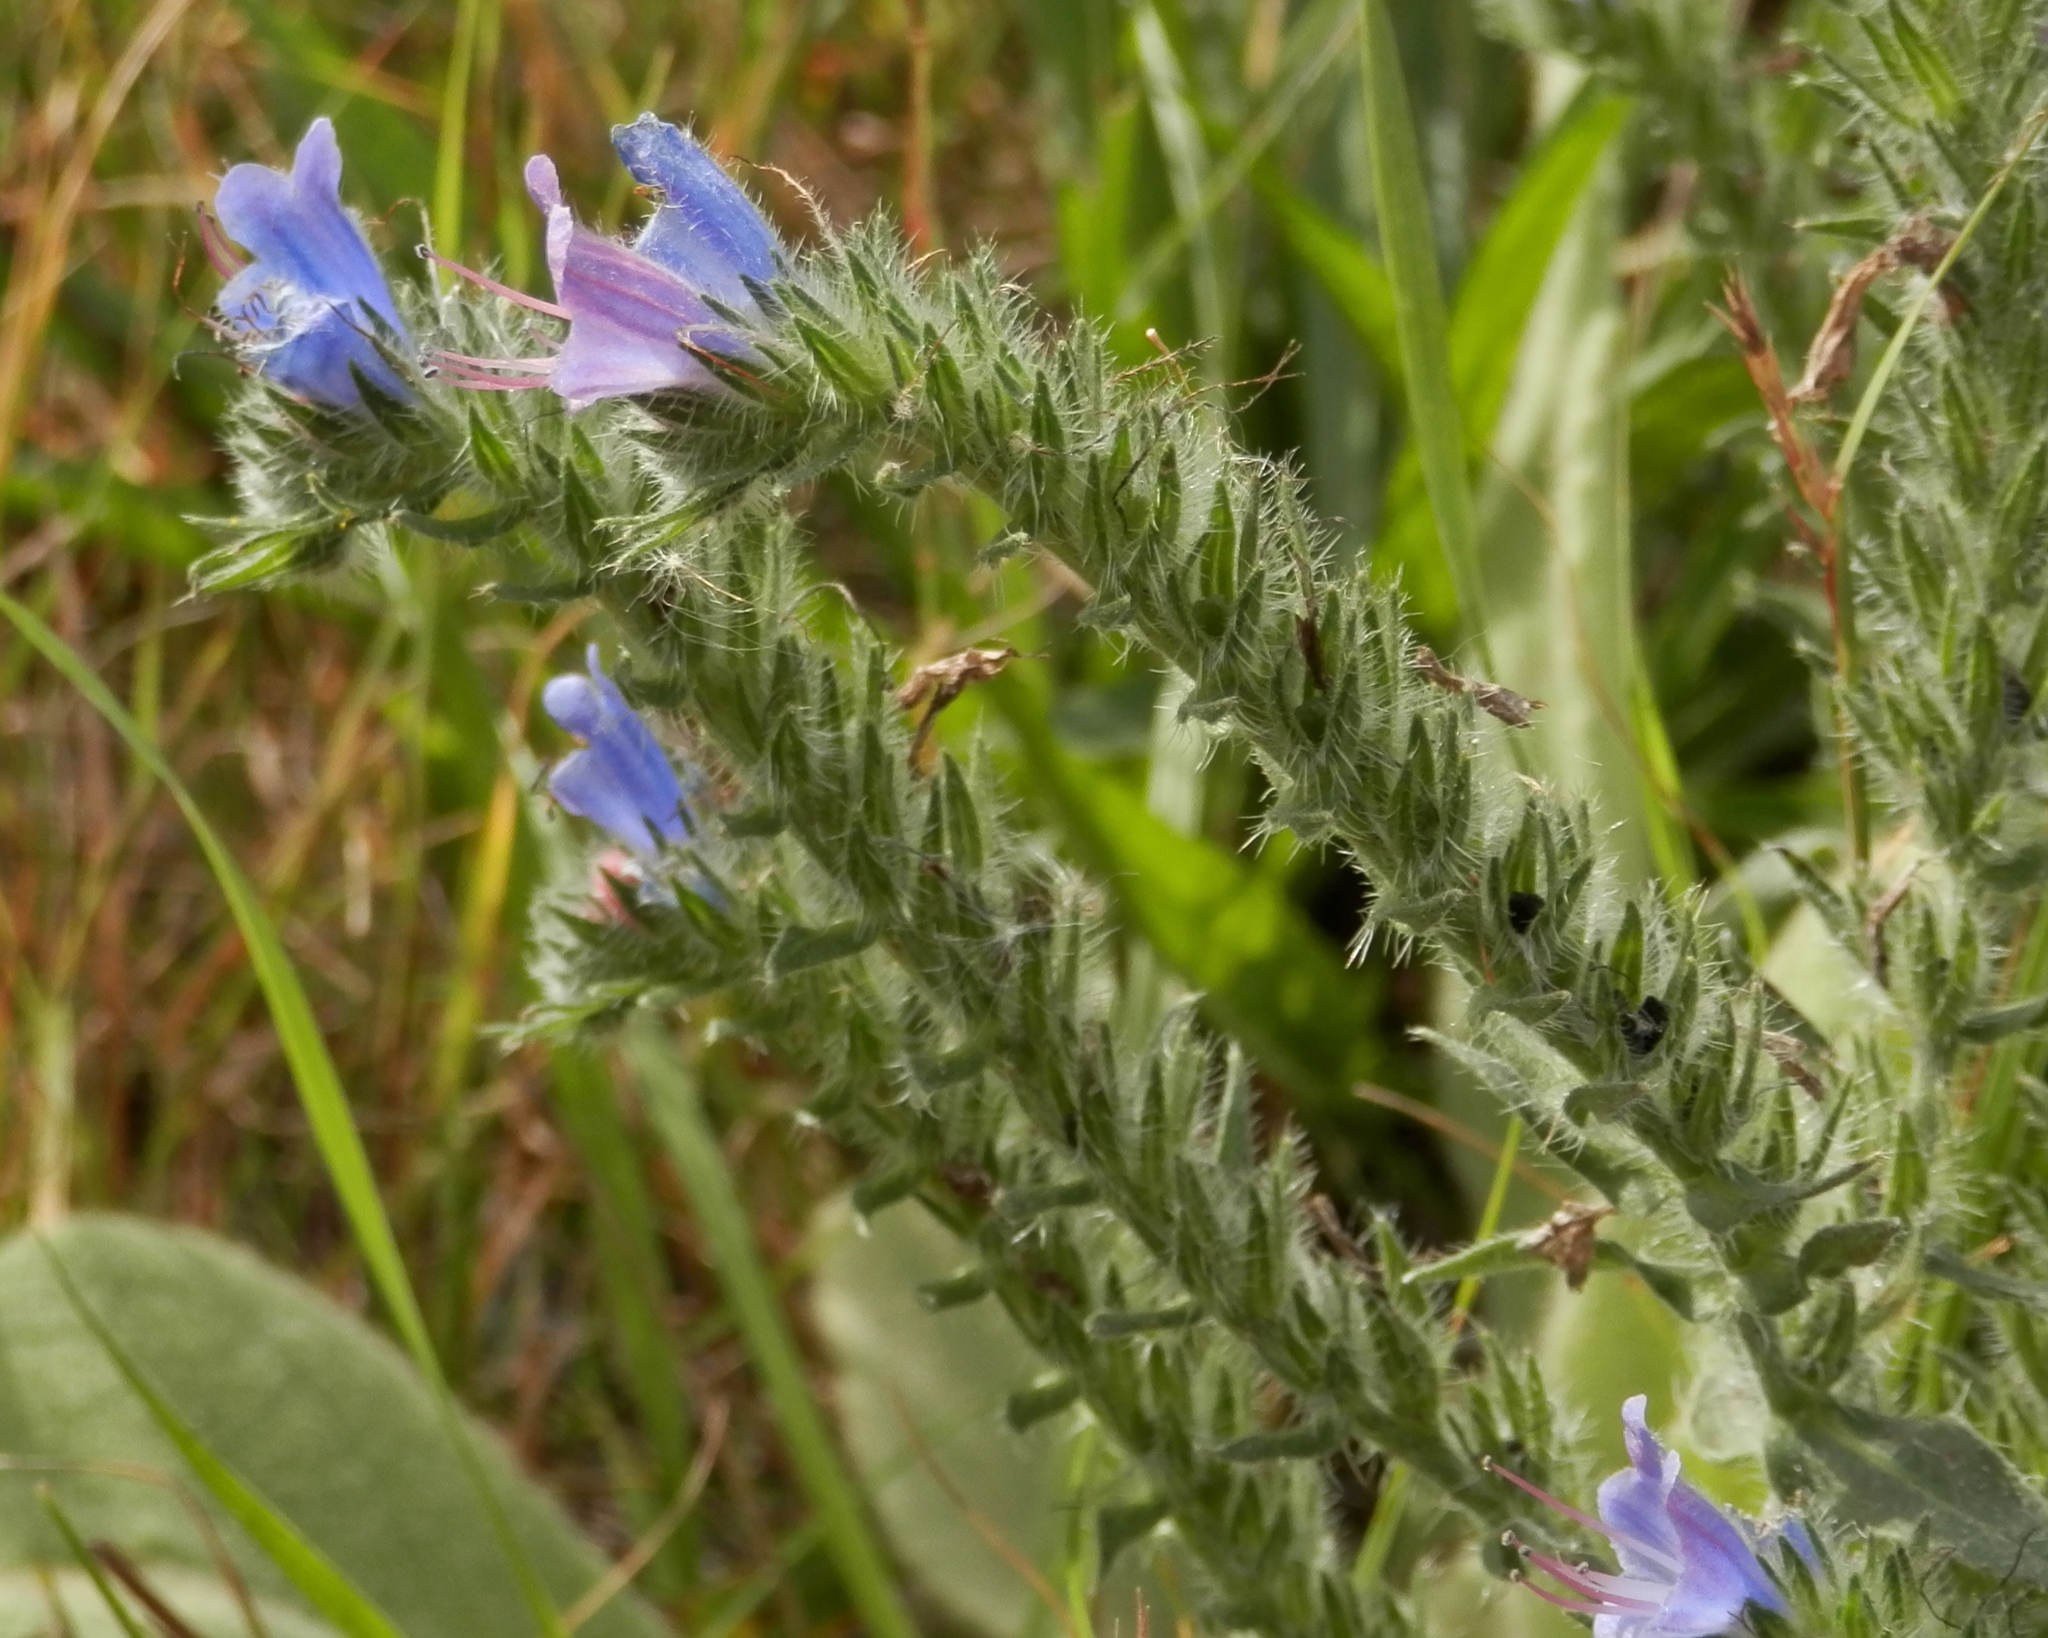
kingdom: Plantae
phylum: Tracheophyta
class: Magnoliopsida
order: Boraginales
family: Boraginaceae
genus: Echium
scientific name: Echium vulgare
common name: Common viper's bugloss
